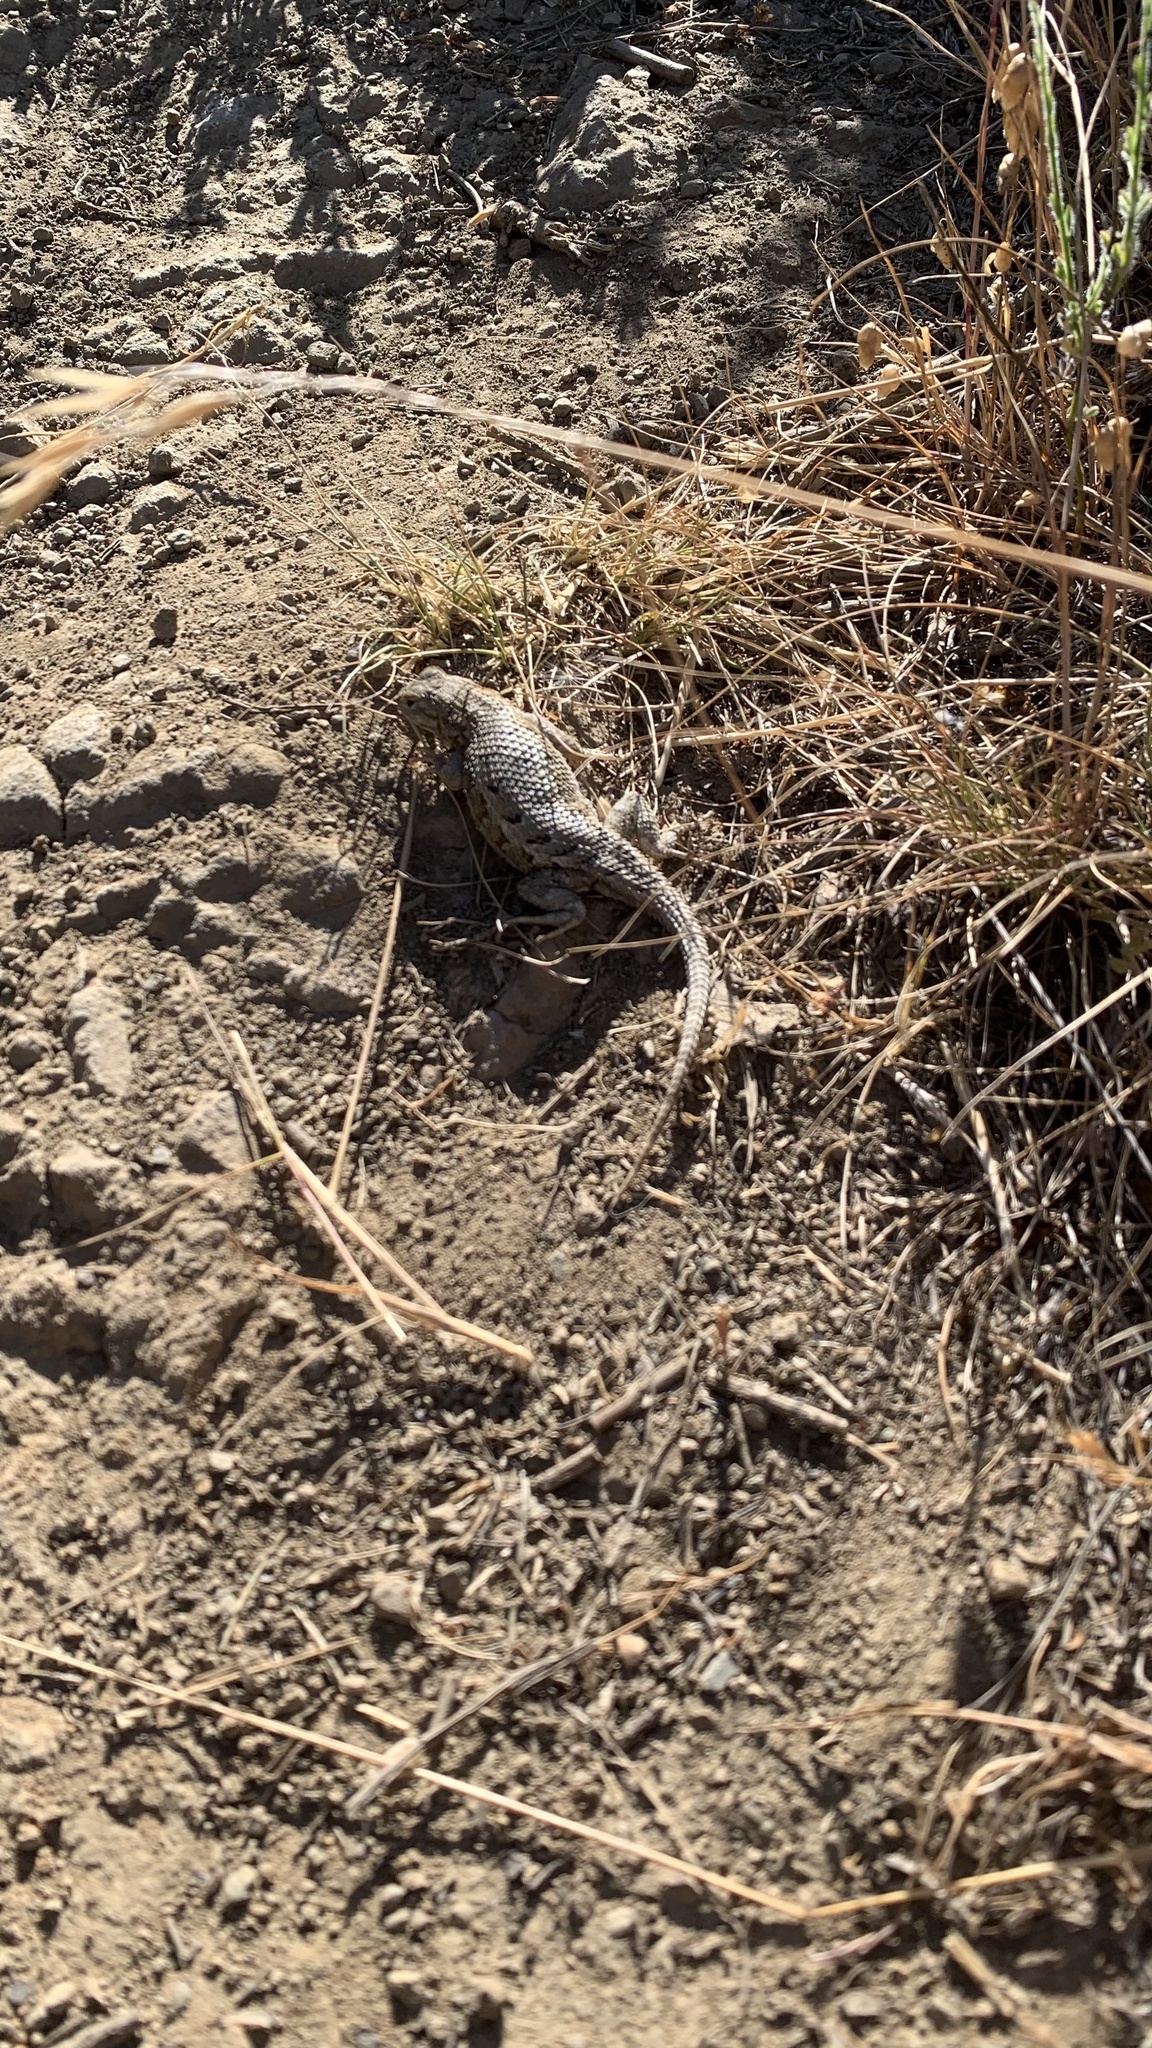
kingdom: Animalia
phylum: Chordata
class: Squamata
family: Phrynosomatidae
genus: Sceloporus
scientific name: Sceloporus occidentalis
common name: Western fence lizard
